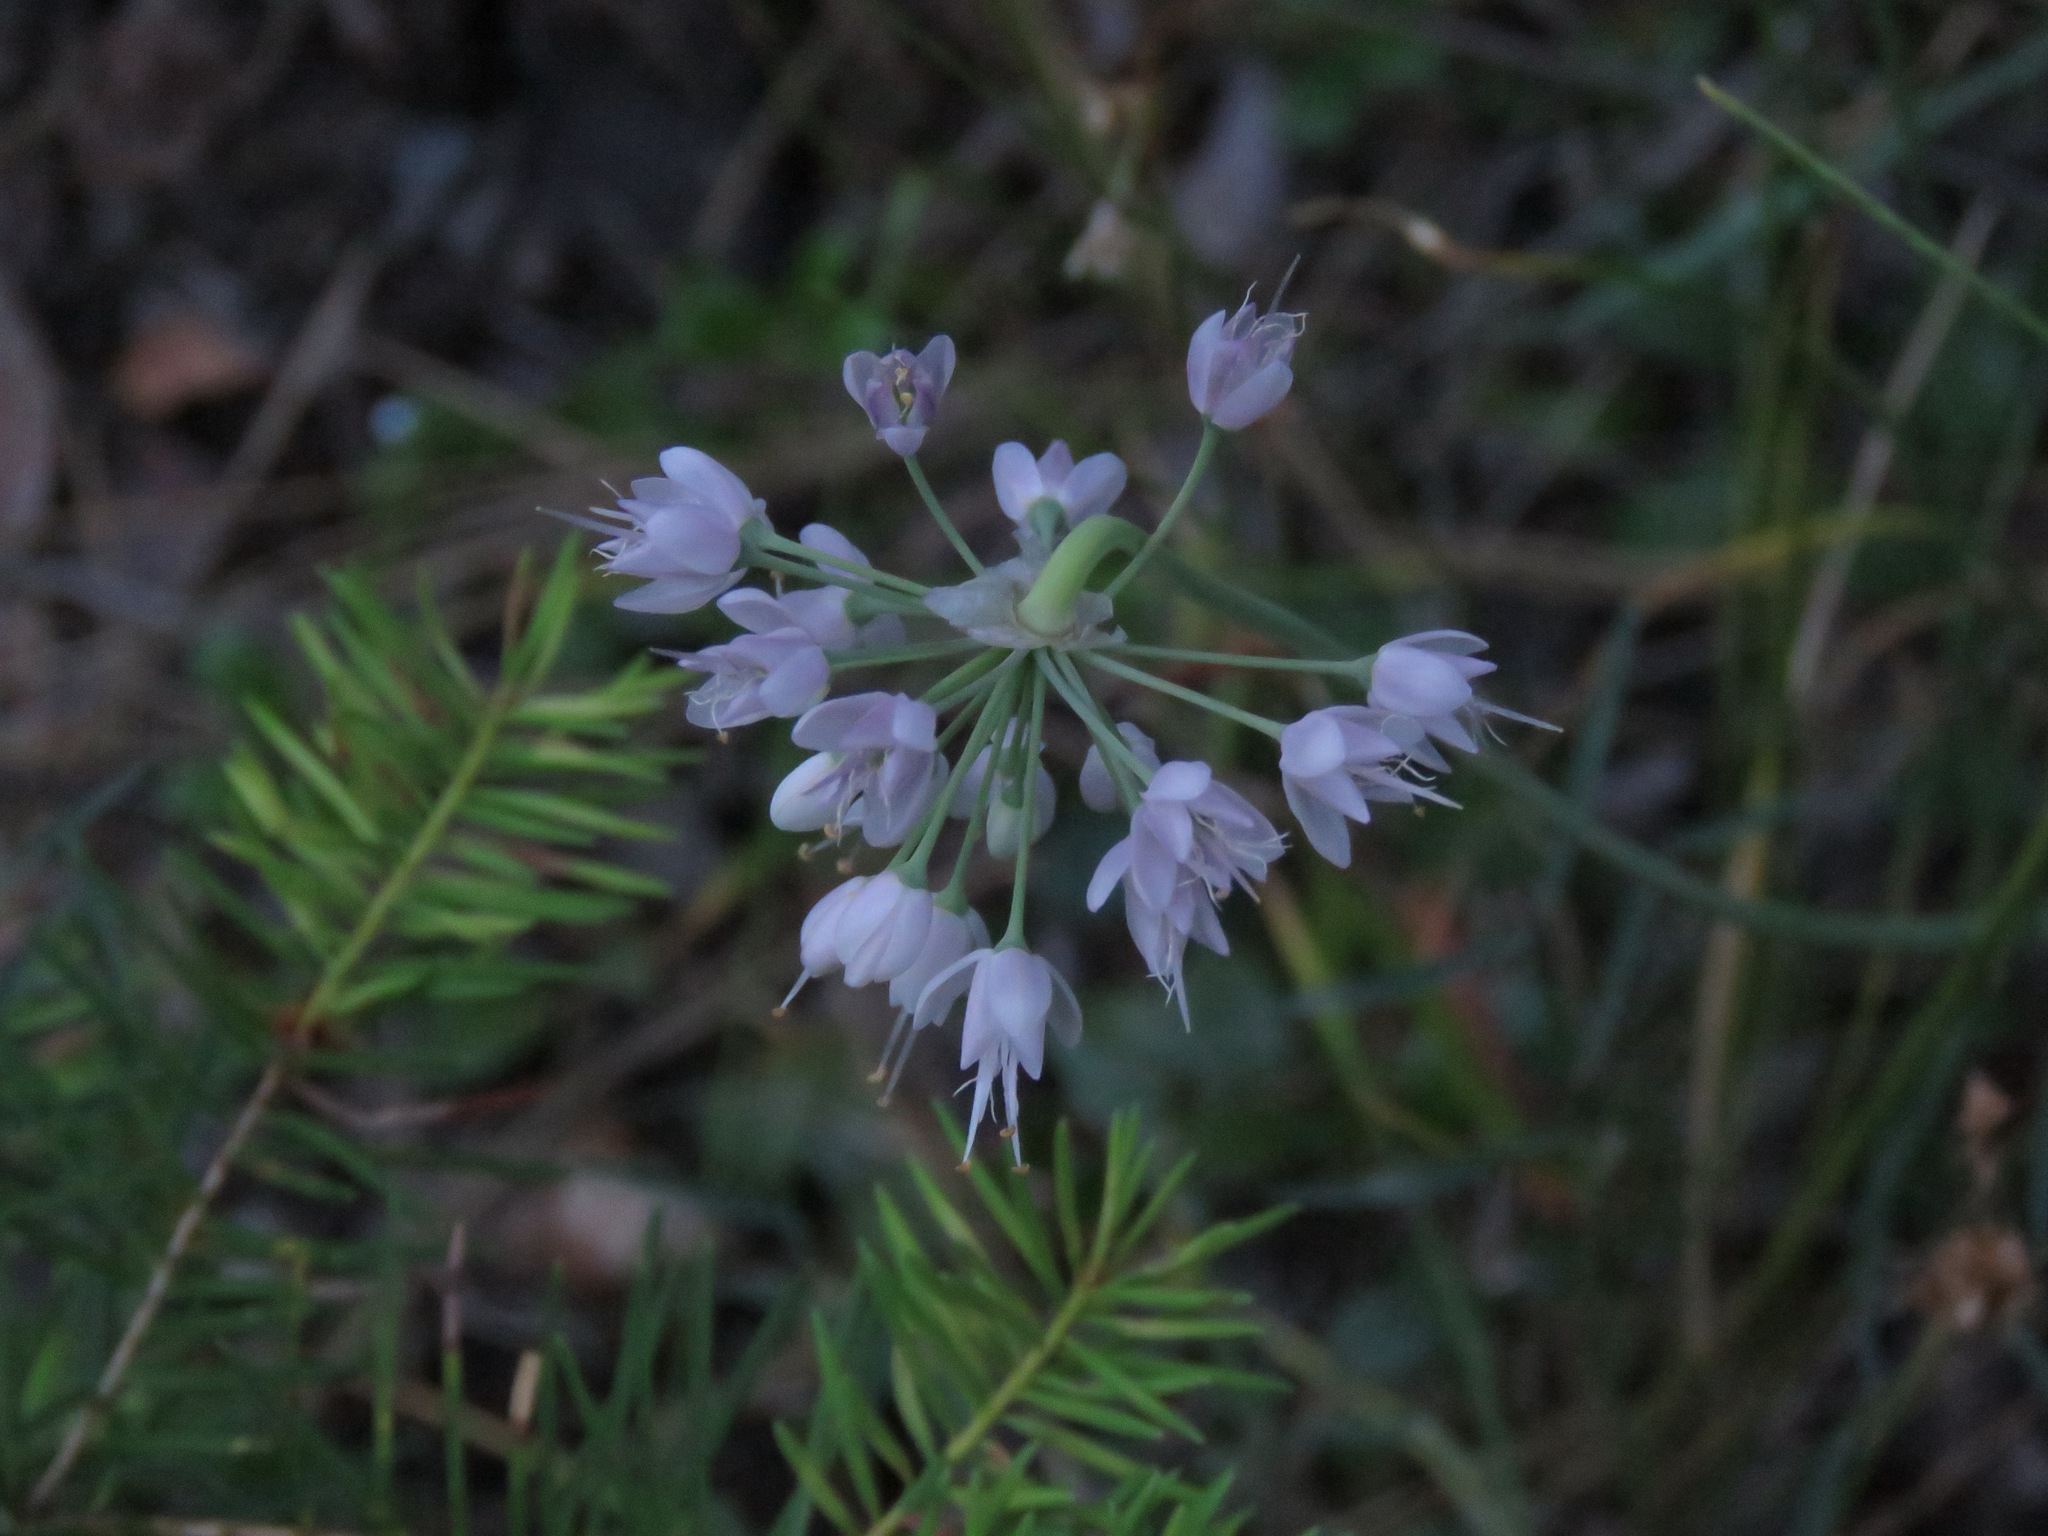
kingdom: Plantae
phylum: Tracheophyta
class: Liliopsida
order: Asparagales
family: Amaryllidaceae
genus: Allium
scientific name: Allium cernuum
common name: Nodding onion
